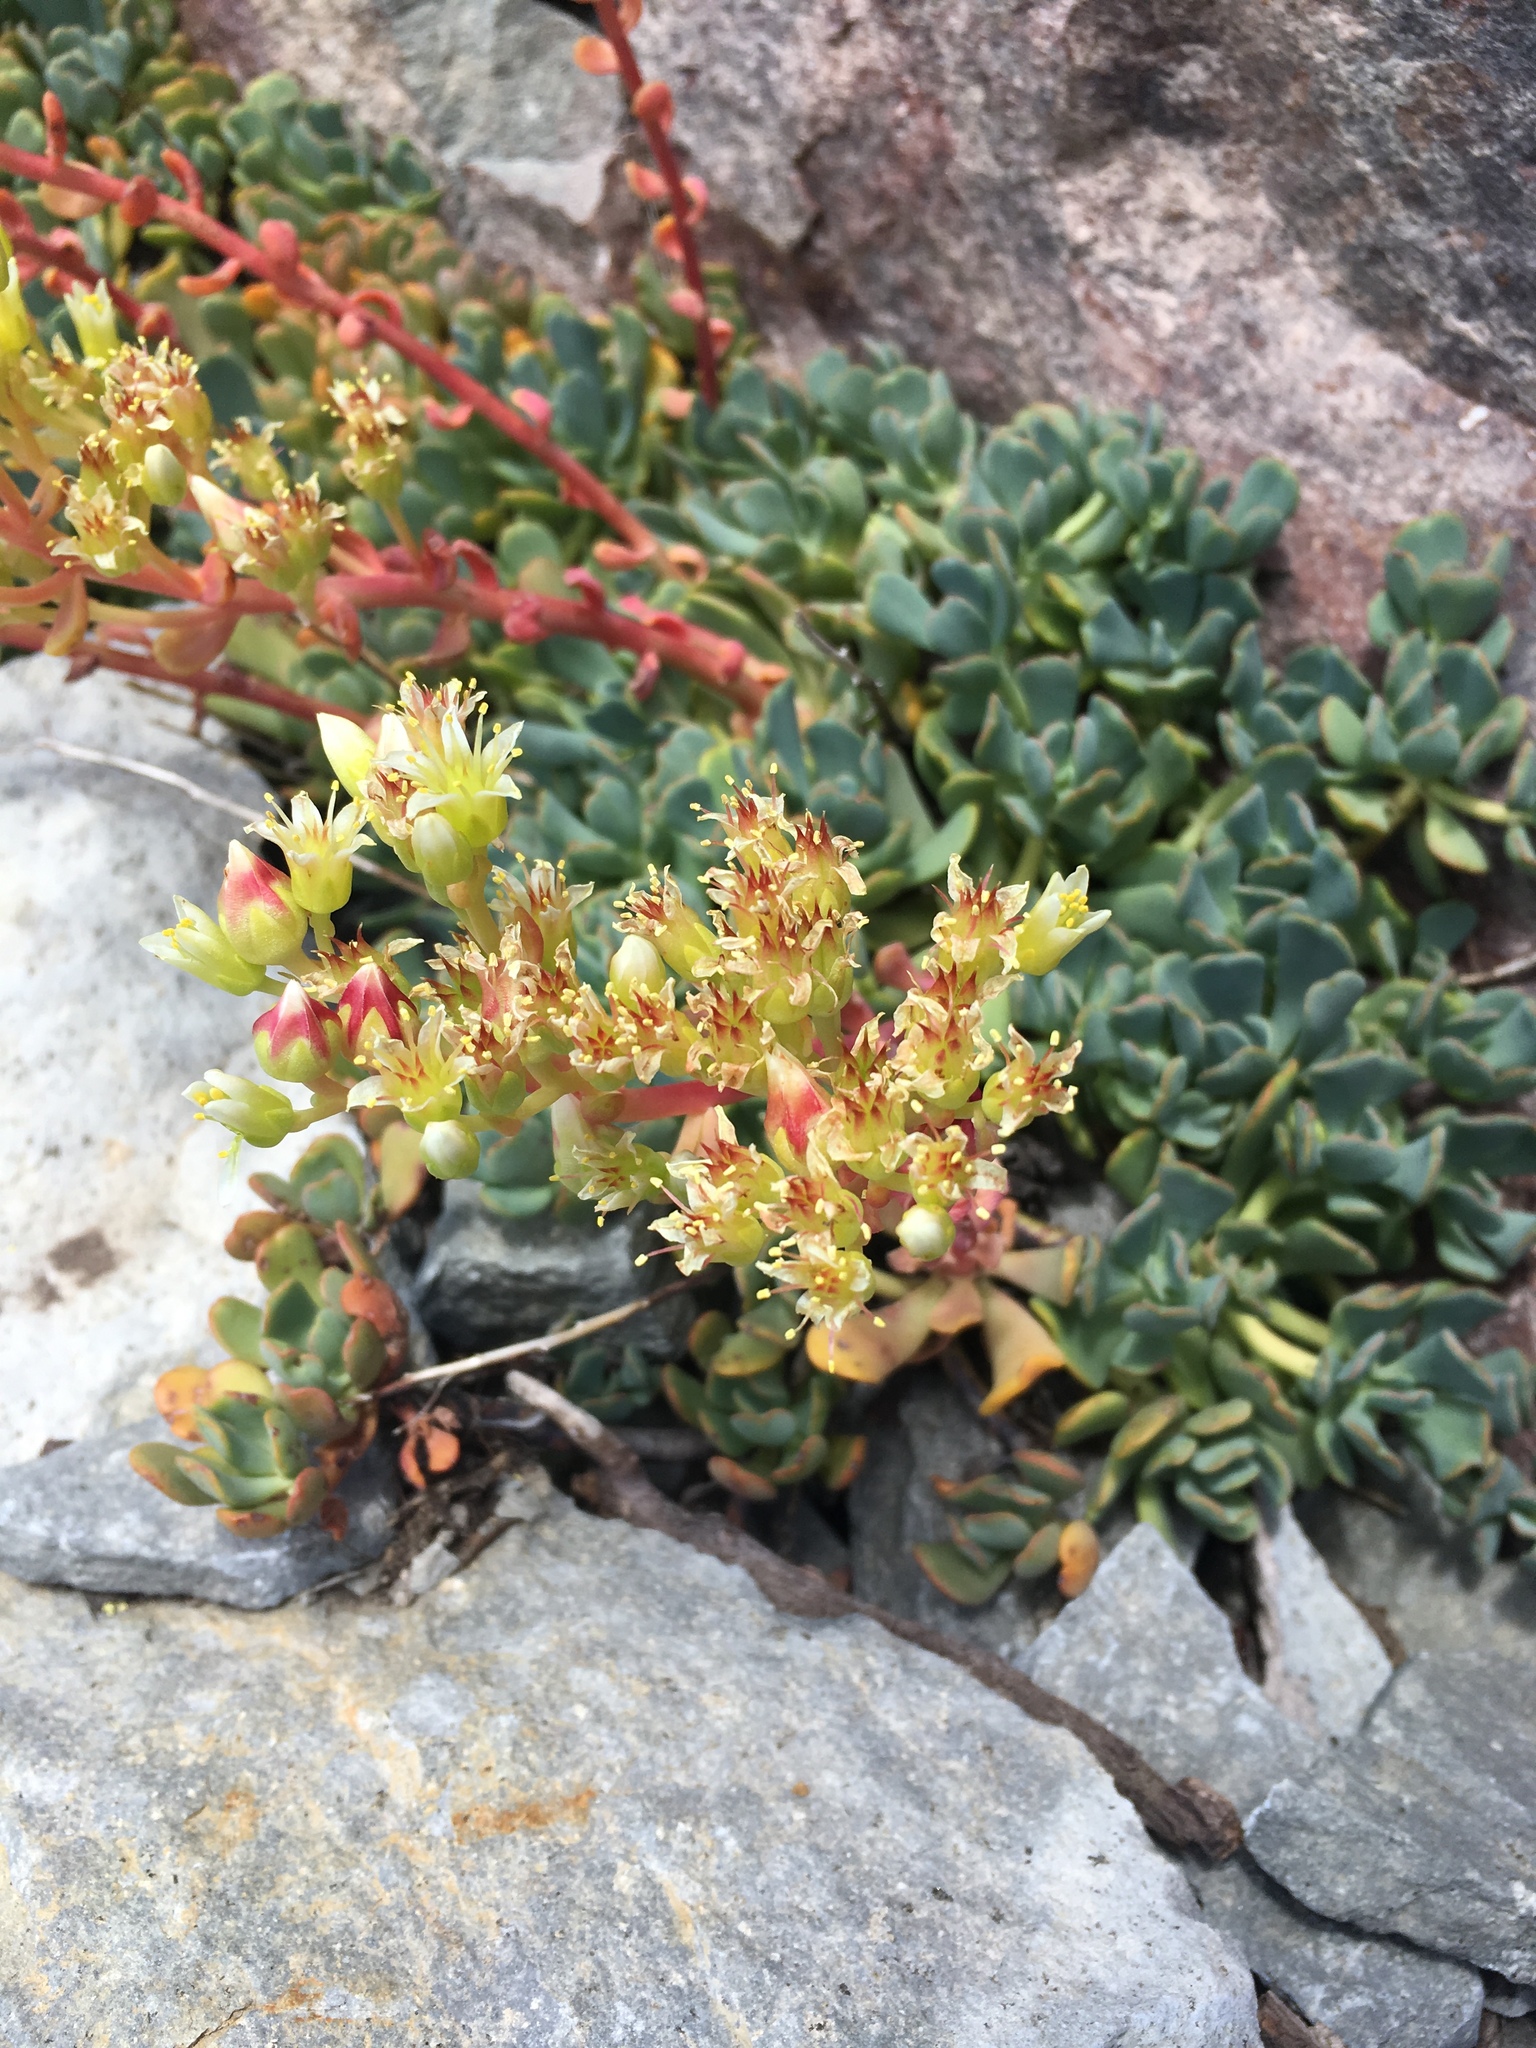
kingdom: Plantae
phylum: Tracheophyta
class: Magnoliopsida
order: Saxifragales
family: Crassulaceae
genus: Sedum
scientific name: Sedum oregonense
